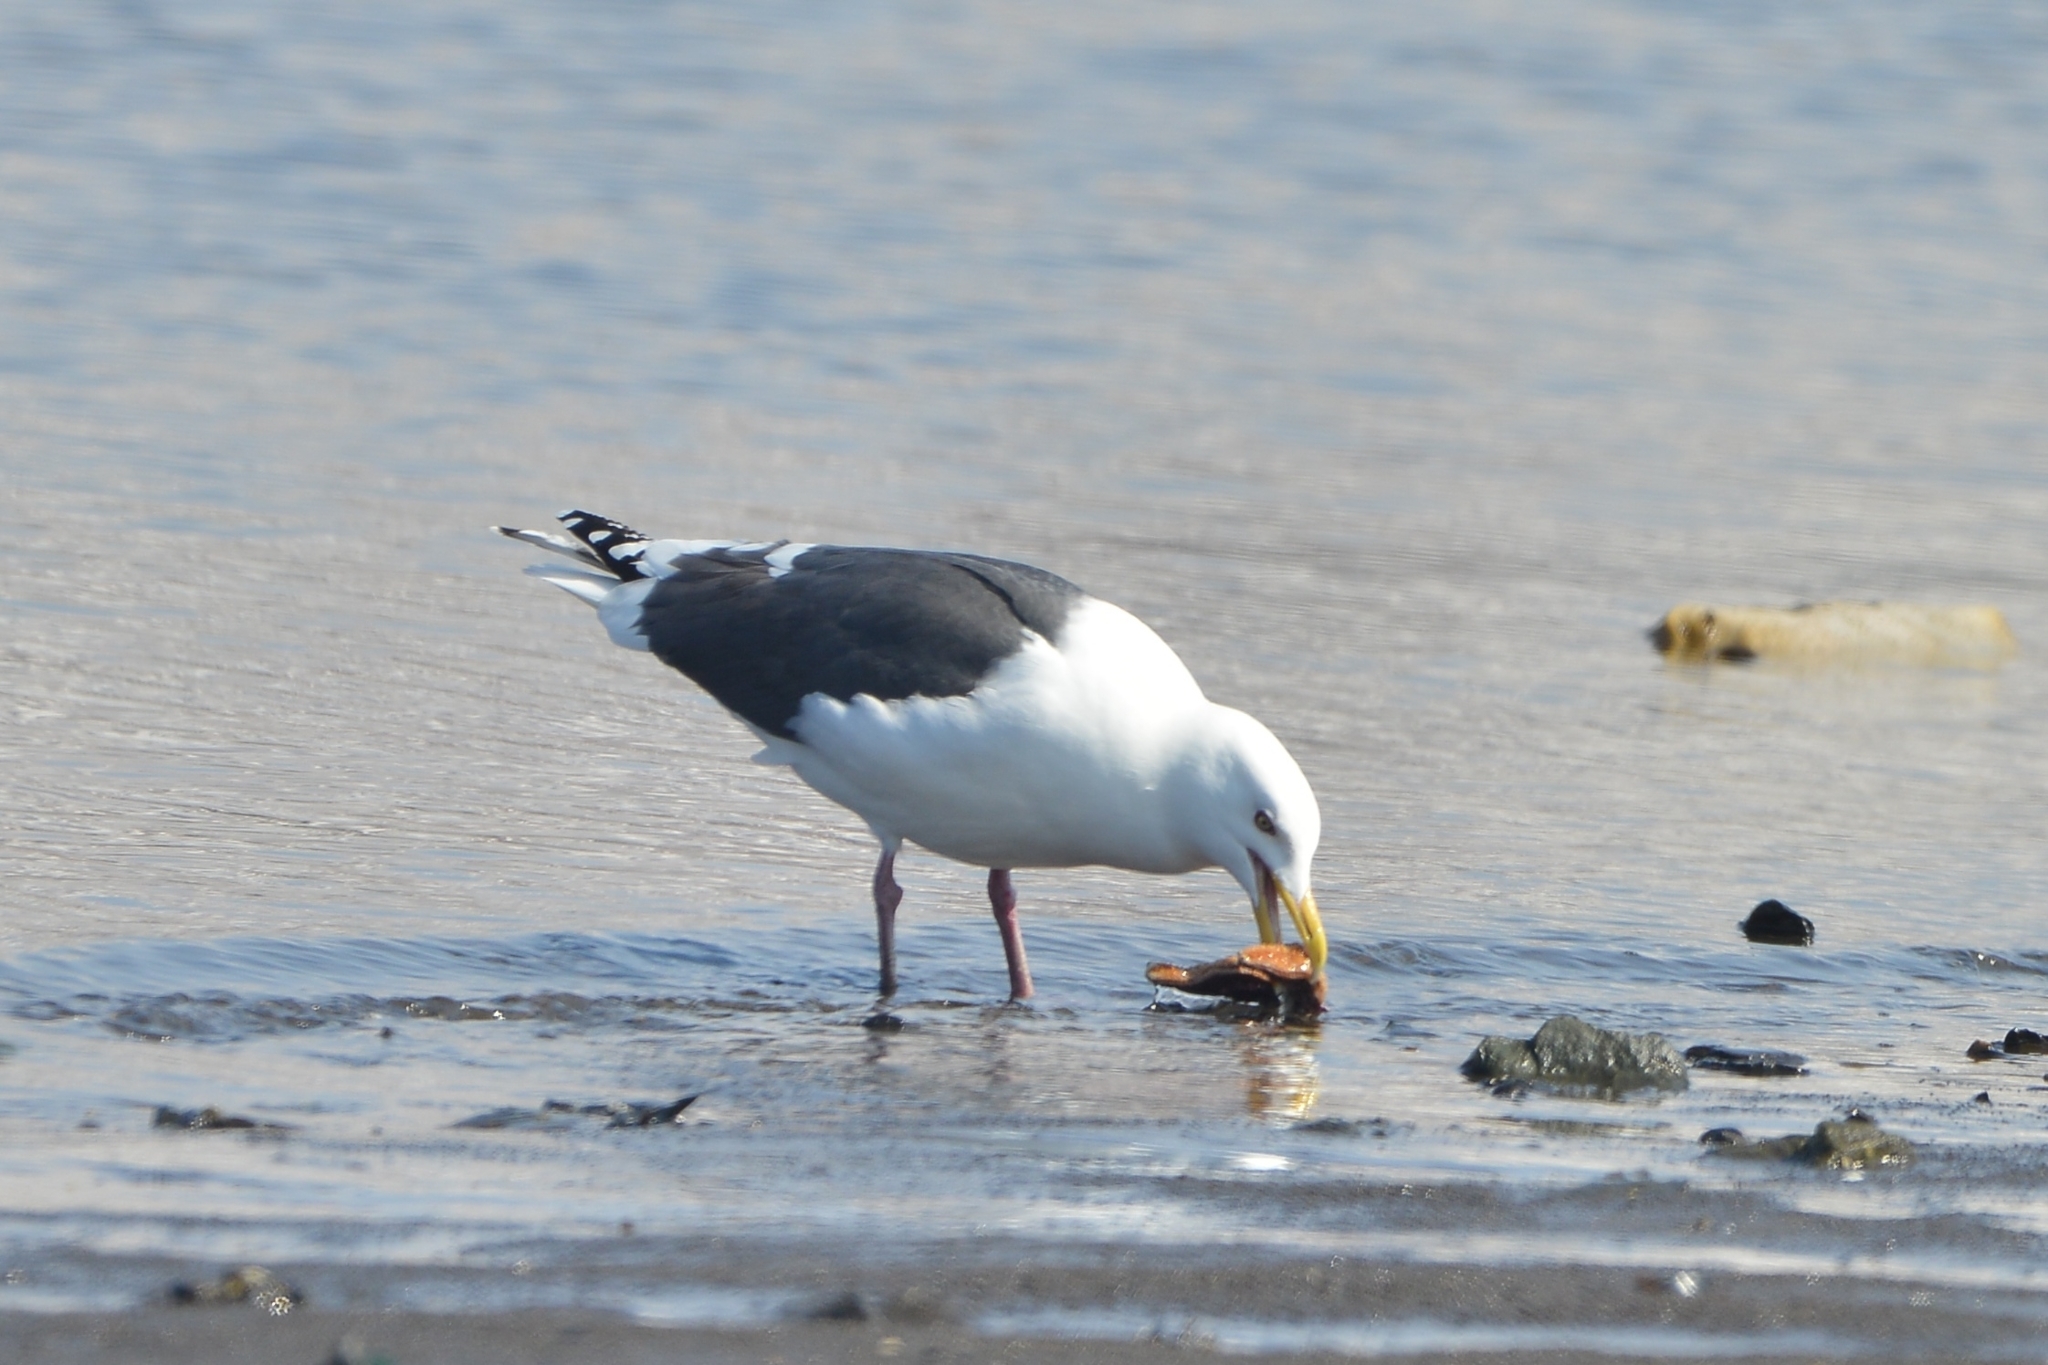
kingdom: Animalia
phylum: Chordata
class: Aves
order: Charadriiformes
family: Laridae
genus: Larus
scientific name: Larus schistisagus
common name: Slaty-backed gull
